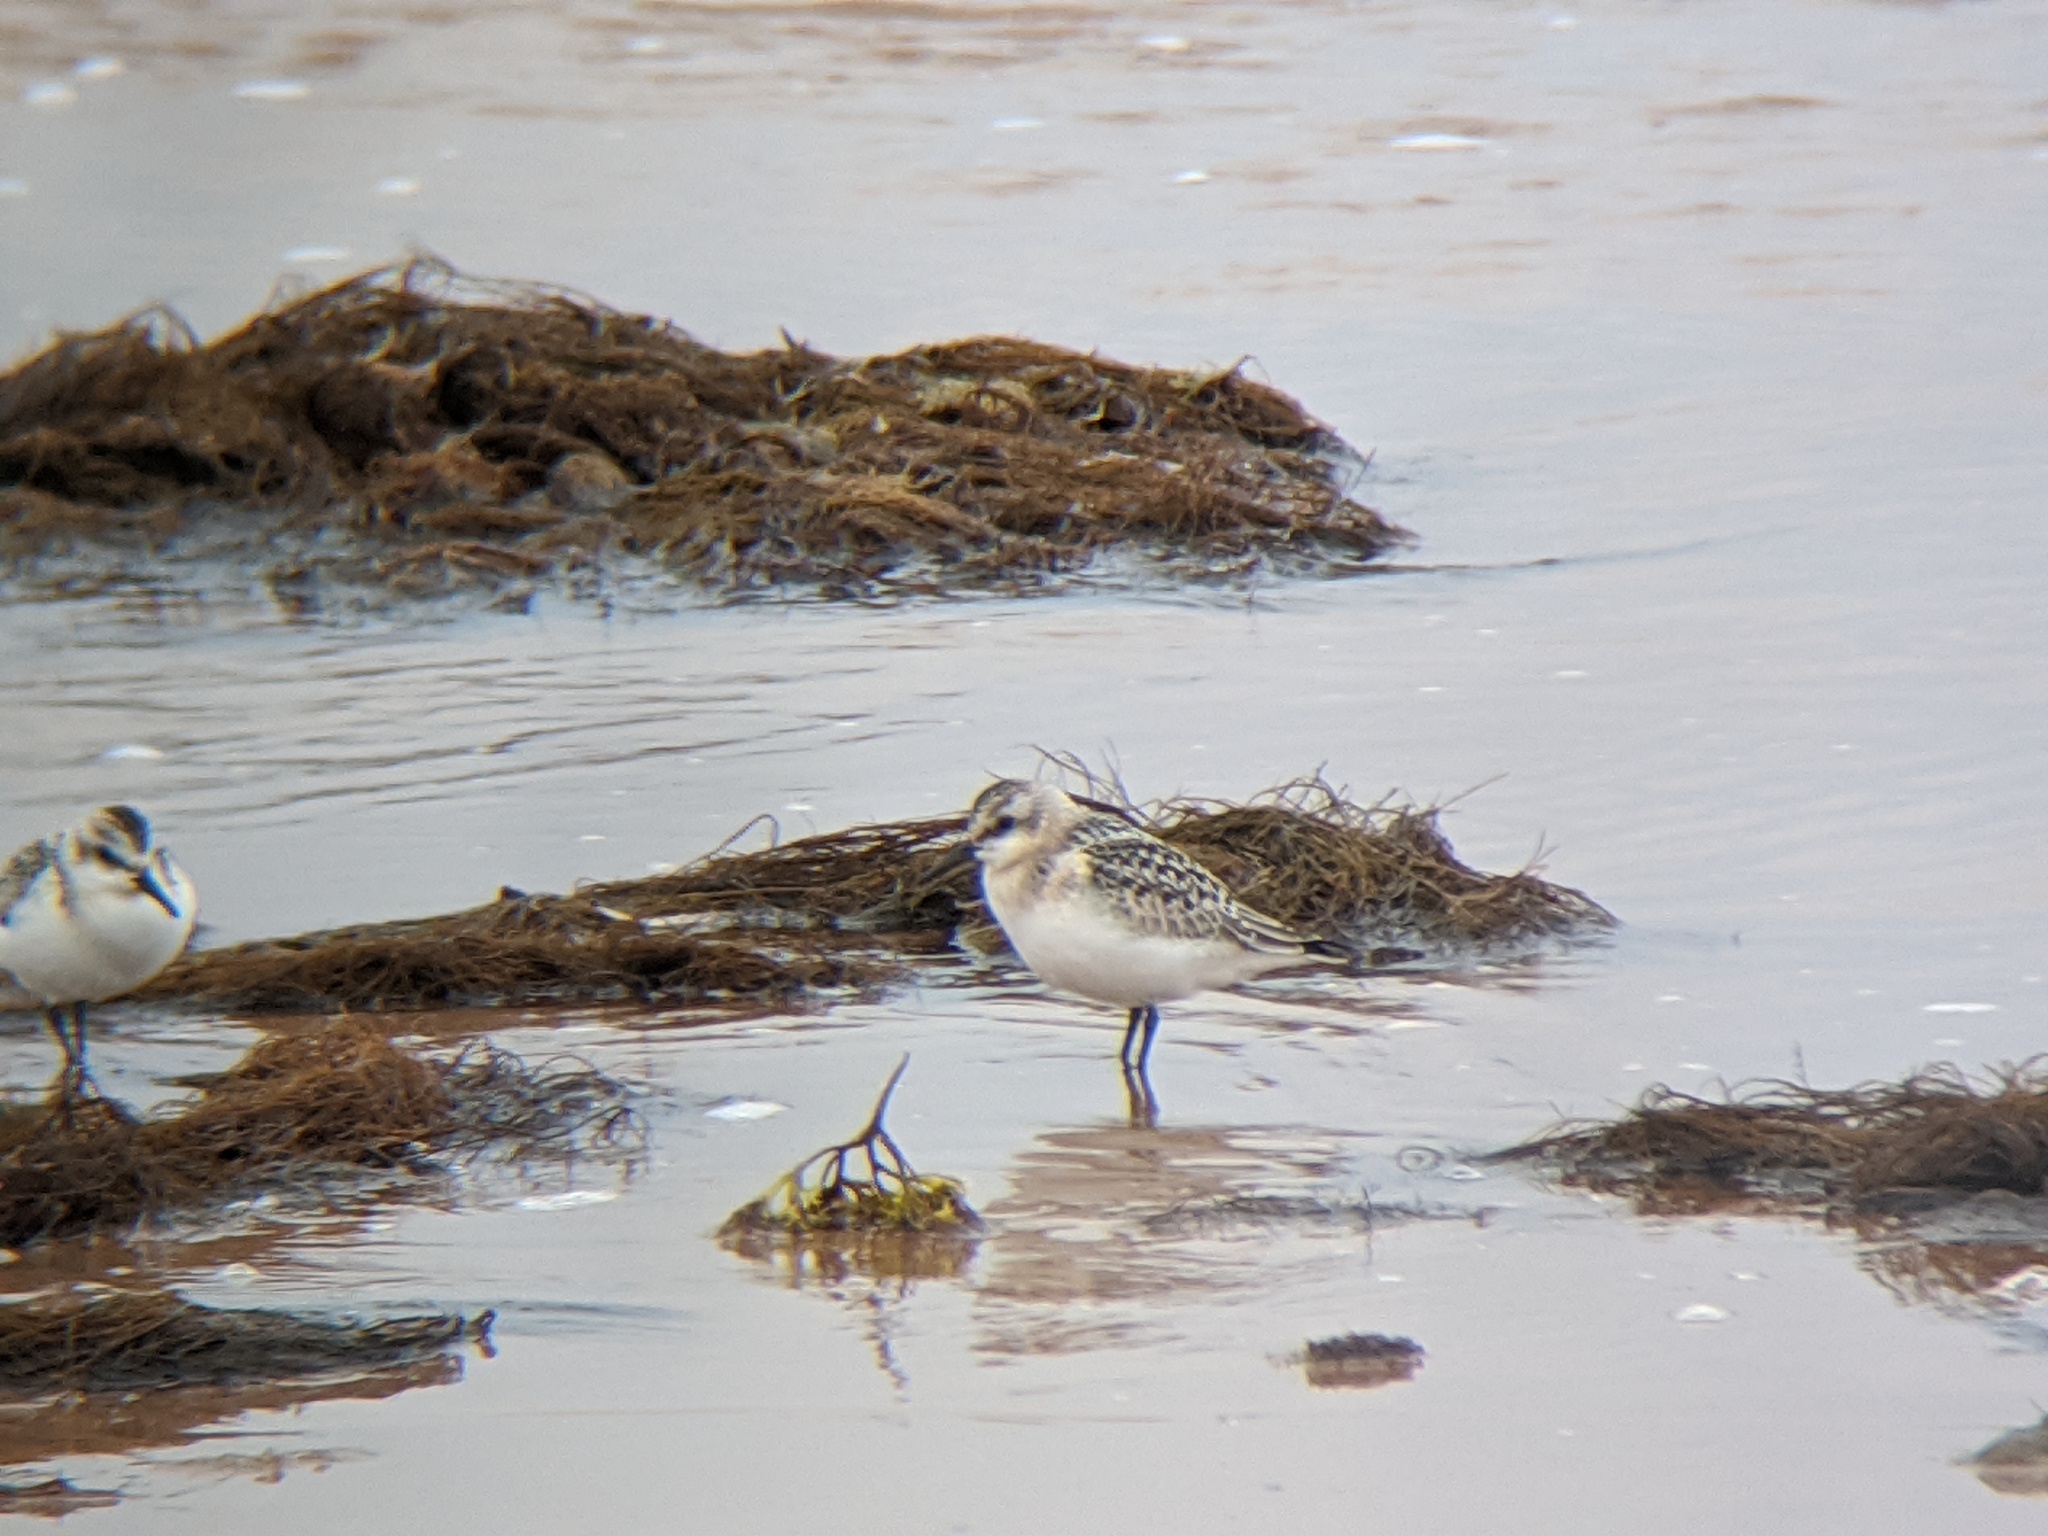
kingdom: Animalia
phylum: Chordata
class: Aves
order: Charadriiformes
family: Scolopacidae
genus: Calidris
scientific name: Calidris alba
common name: Sanderling
